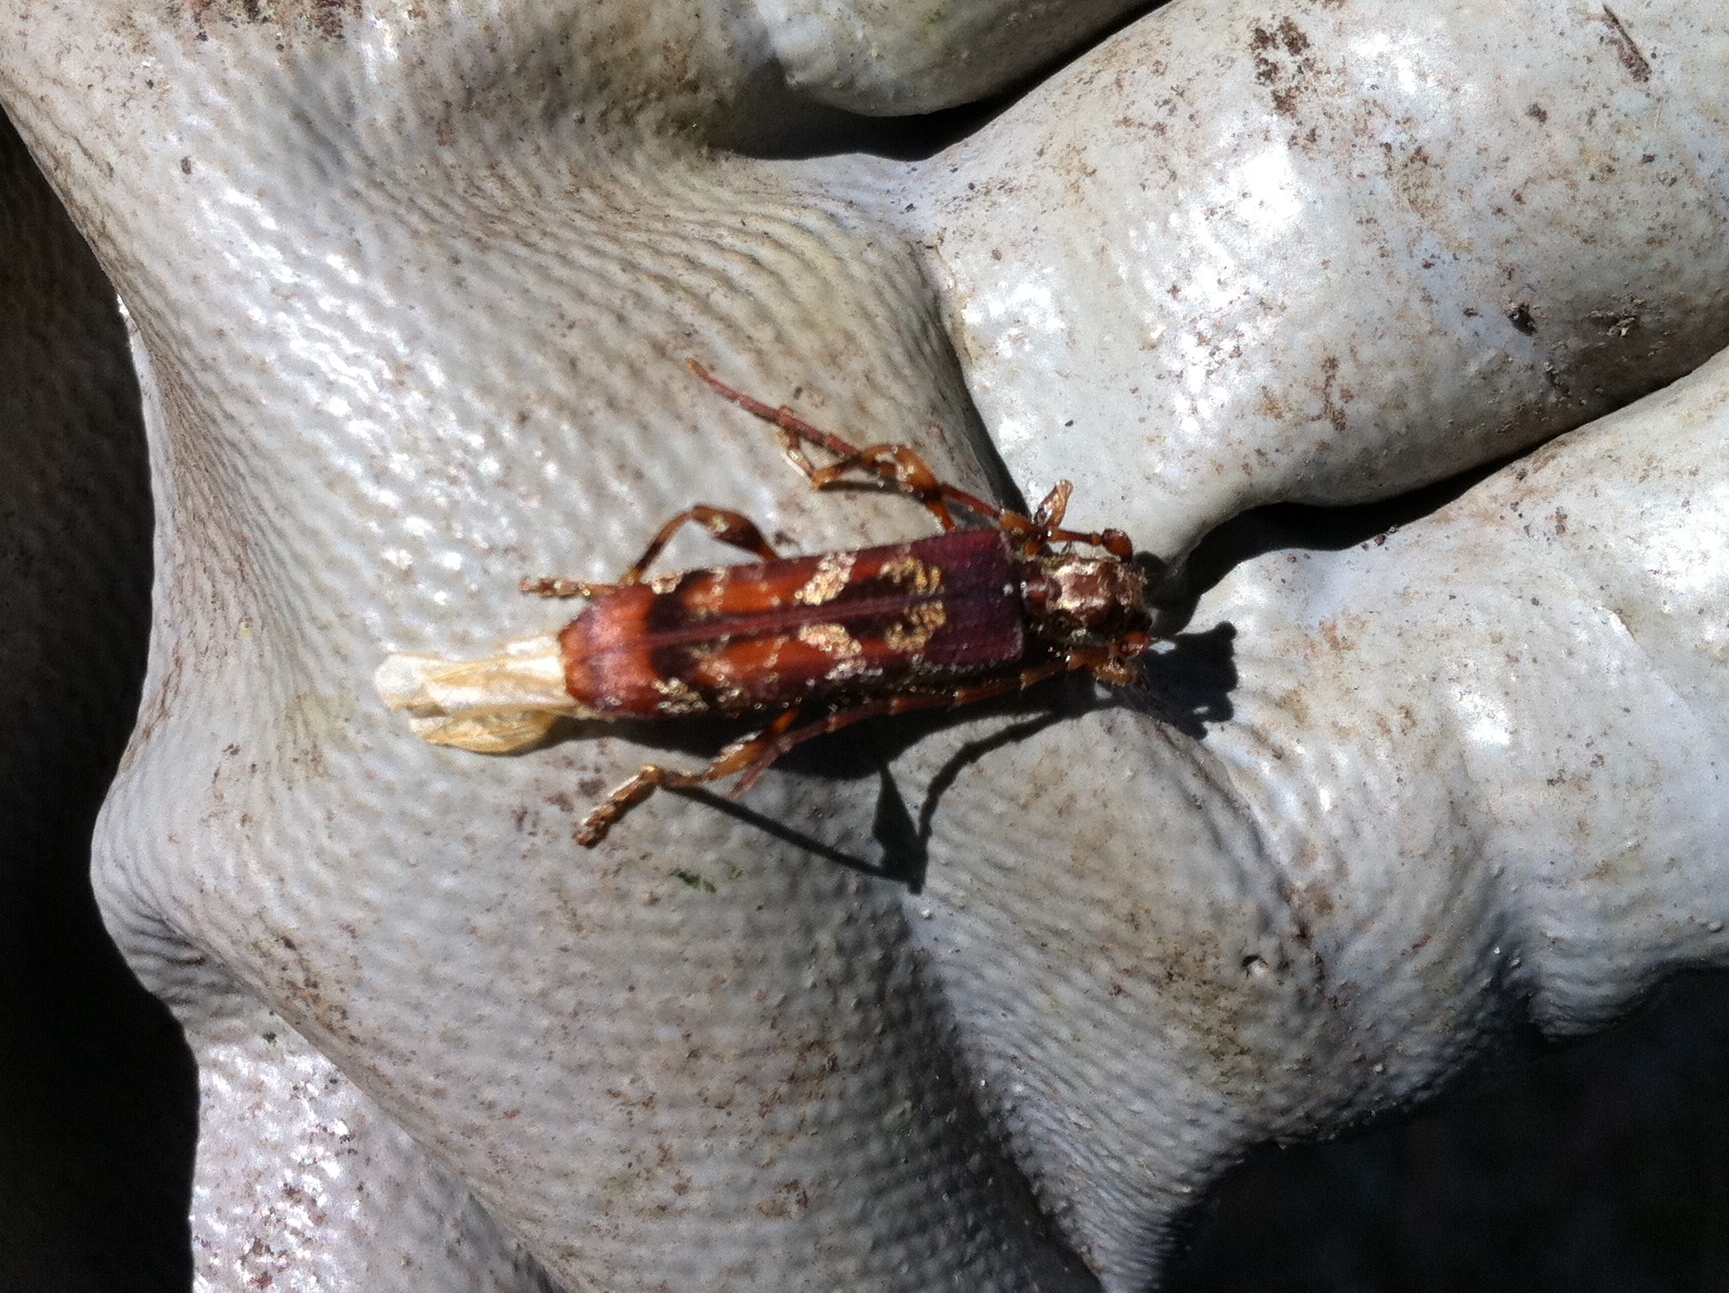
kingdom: Animalia
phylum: Arthropoda
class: Insecta
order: Coleoptera
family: Cerambycidae
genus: Tessaromma
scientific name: Tessaromma undatum
